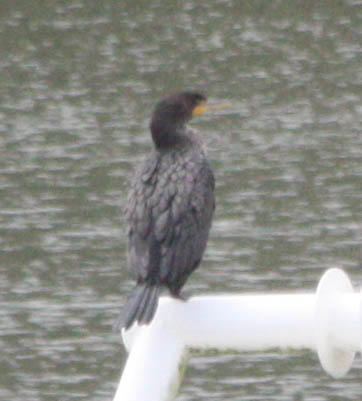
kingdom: Animalia
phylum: Chordata
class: Aves
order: Suliformes
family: Phalacrocoracidae
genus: Phalacrocorax
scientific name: Phalacrocorax auritus
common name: Double-crested cormorant
